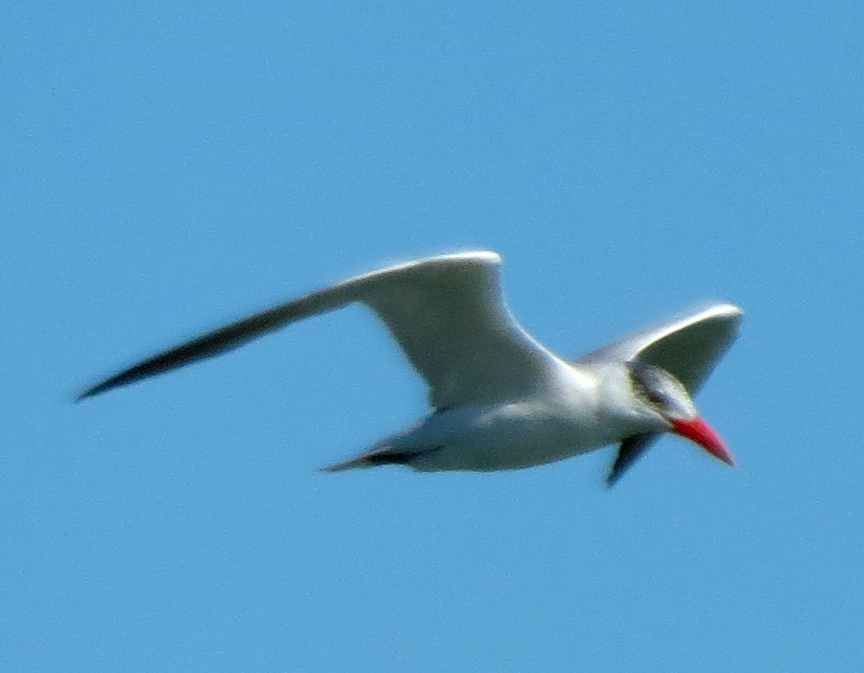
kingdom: Animalia
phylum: Chordata
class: Aves
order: Charadriiformes
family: Laridae
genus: Hydroprogne
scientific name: Hydroprogne caspia
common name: Caspian tern
